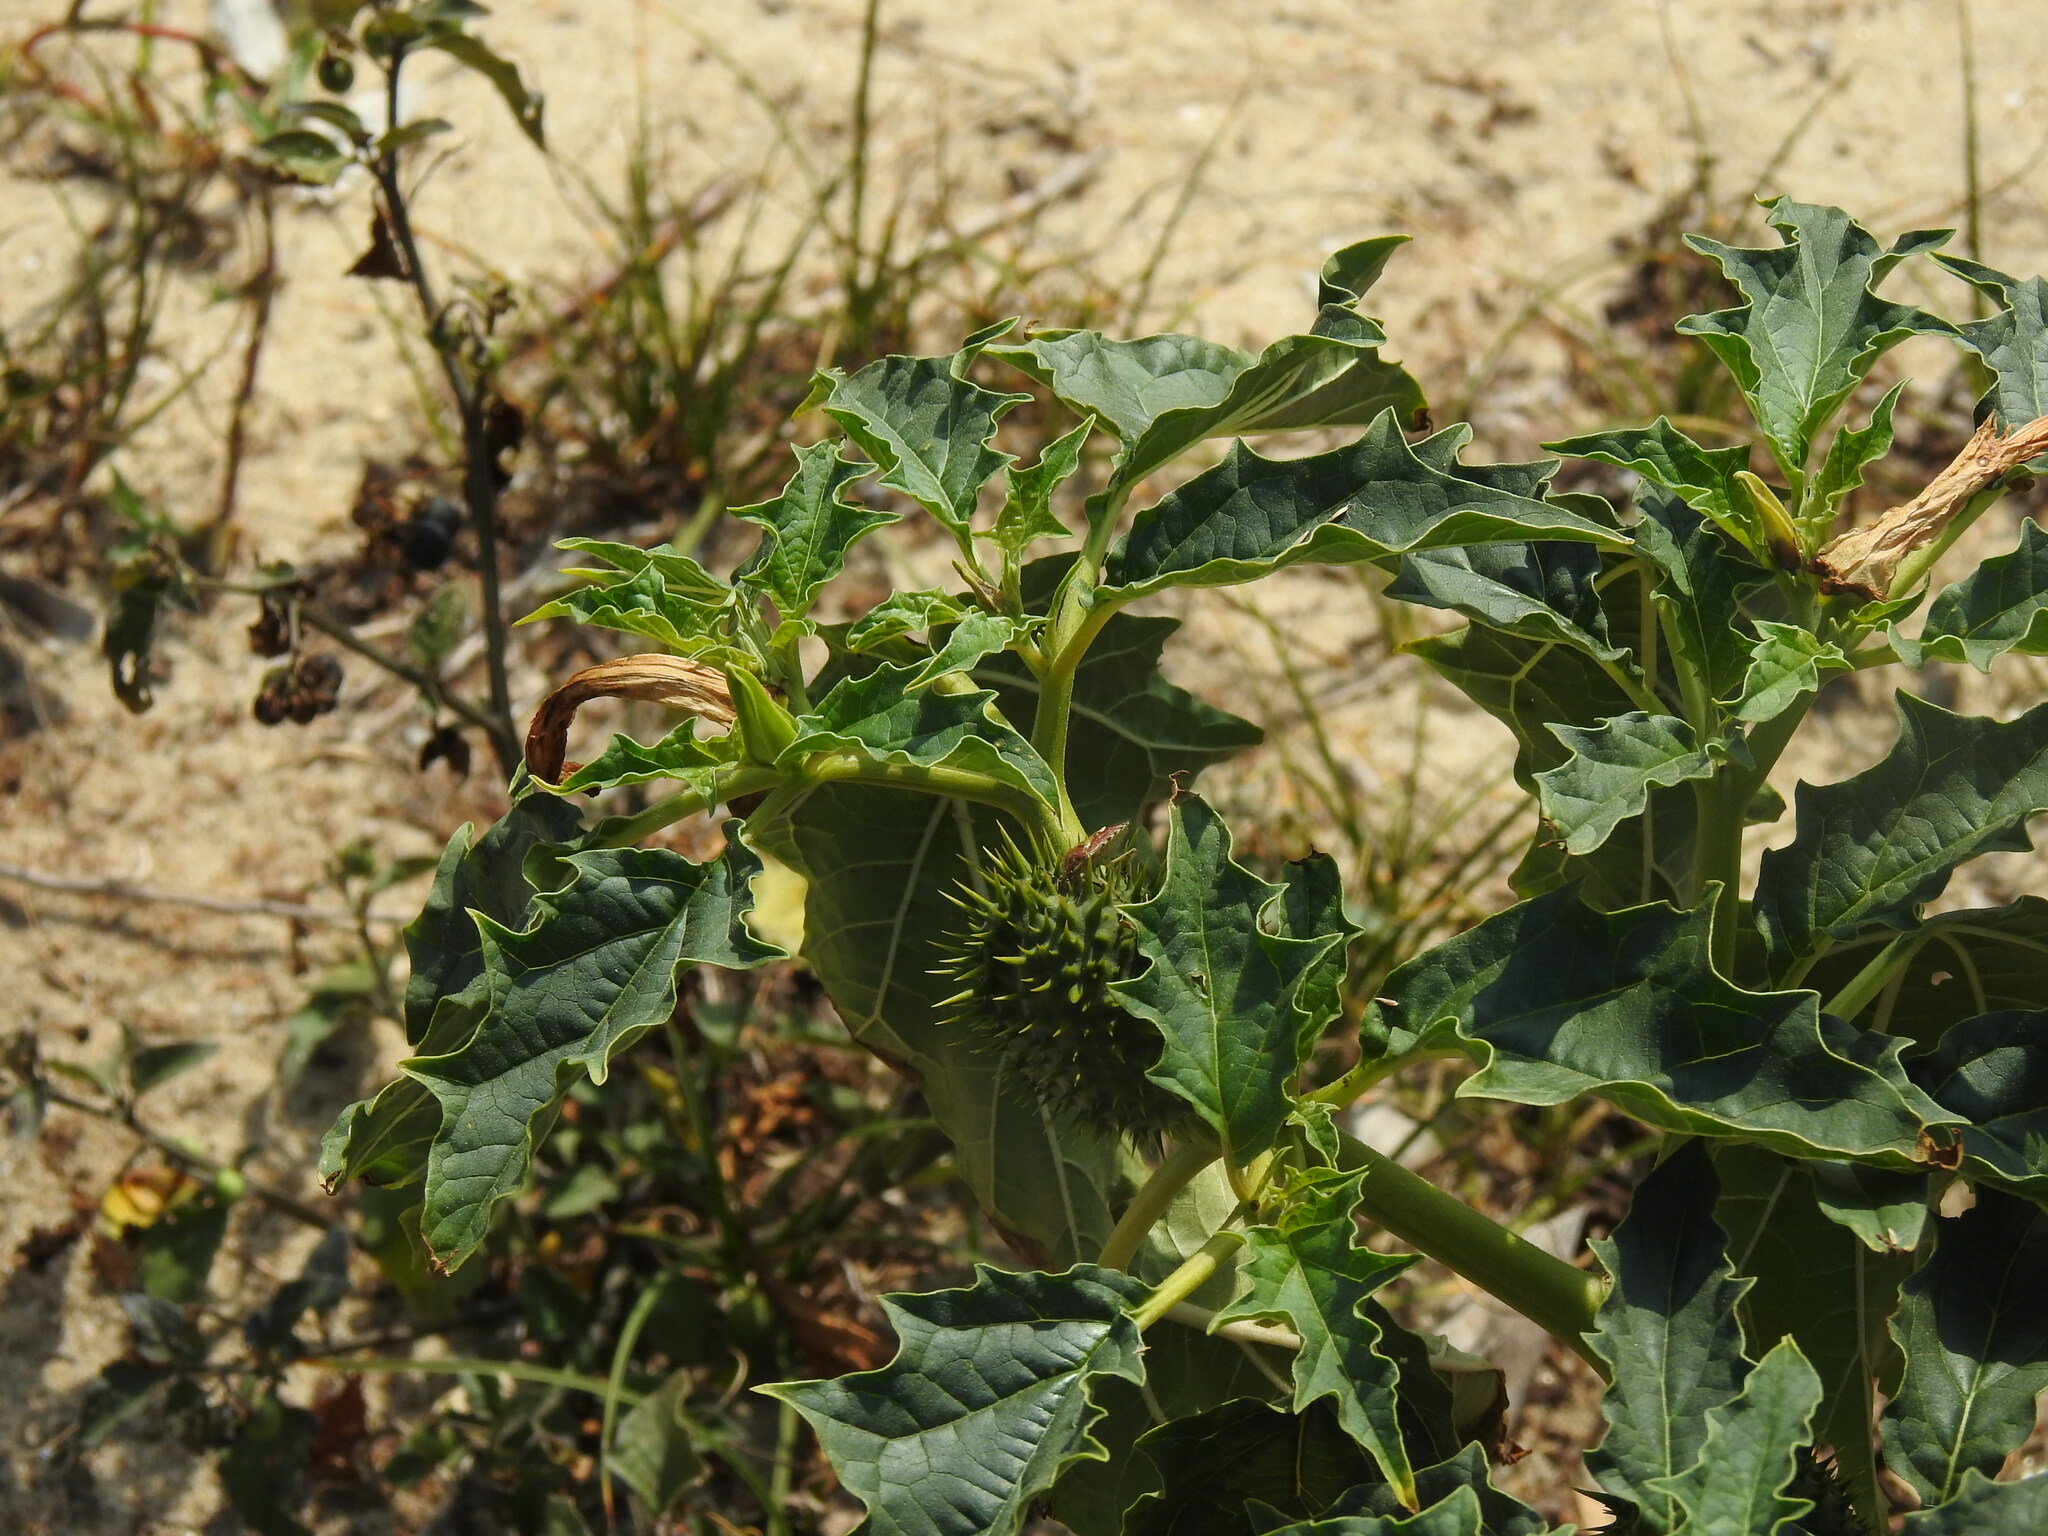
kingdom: Plantae
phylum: Tracheophyta
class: Magnoliopsida
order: Solanales
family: Solanaceae
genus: Datura
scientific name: Datura stramonium
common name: Thorn-apple
